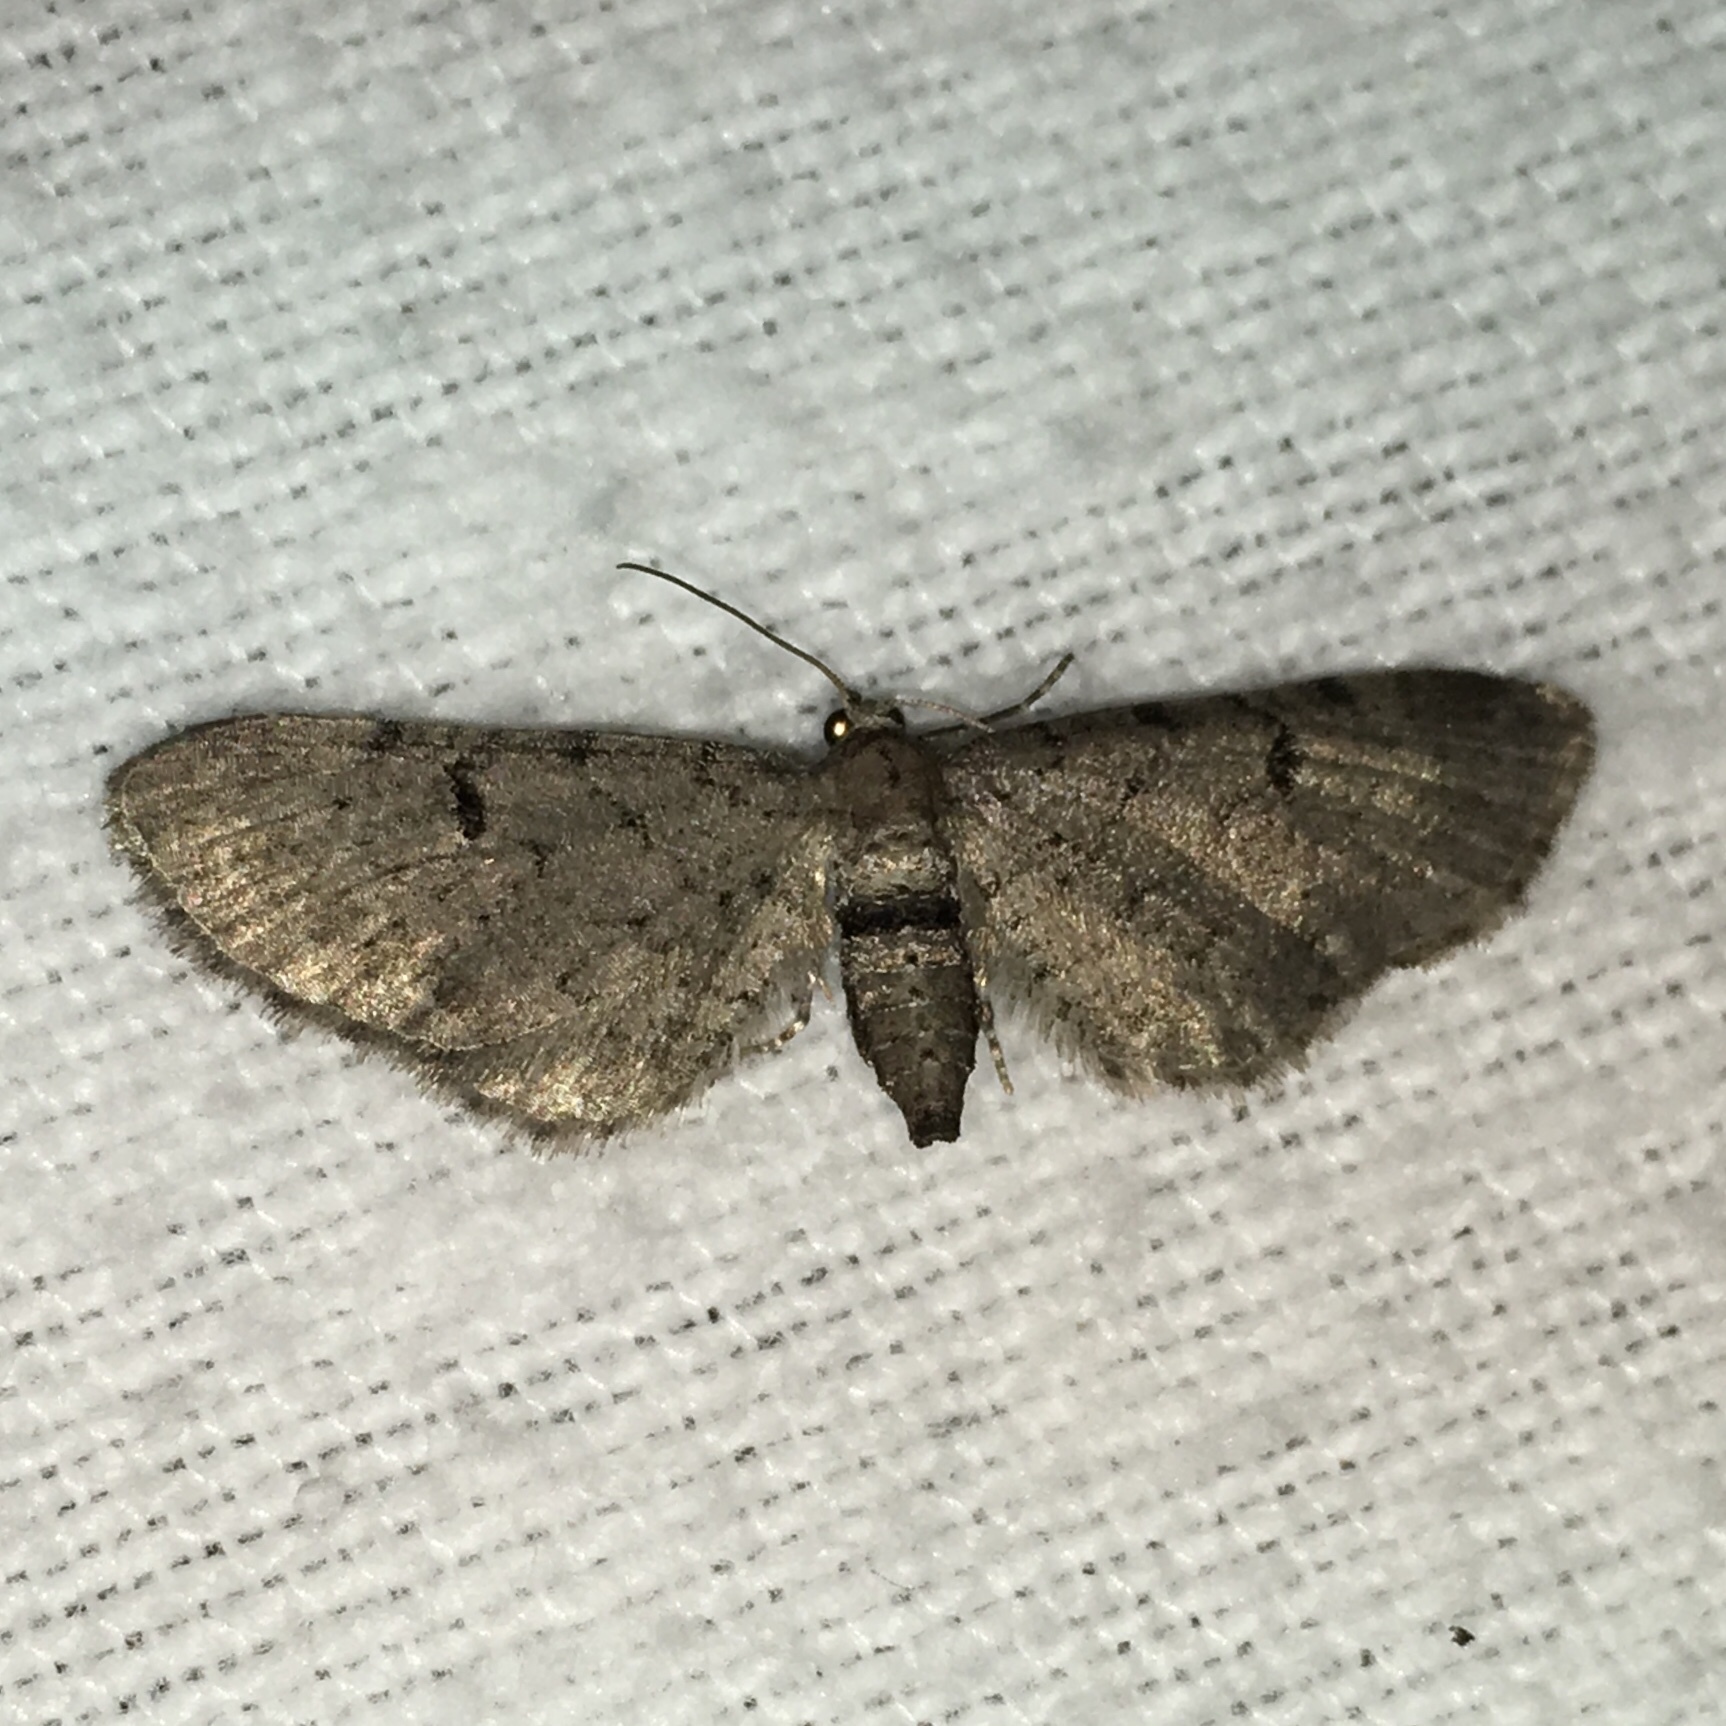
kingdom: Animalia
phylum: Arthropoda
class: Insecta
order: Lepidoptera
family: Geometridae
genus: Eupithecia
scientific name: Eupithecia miserulata
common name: Common eupithecia
